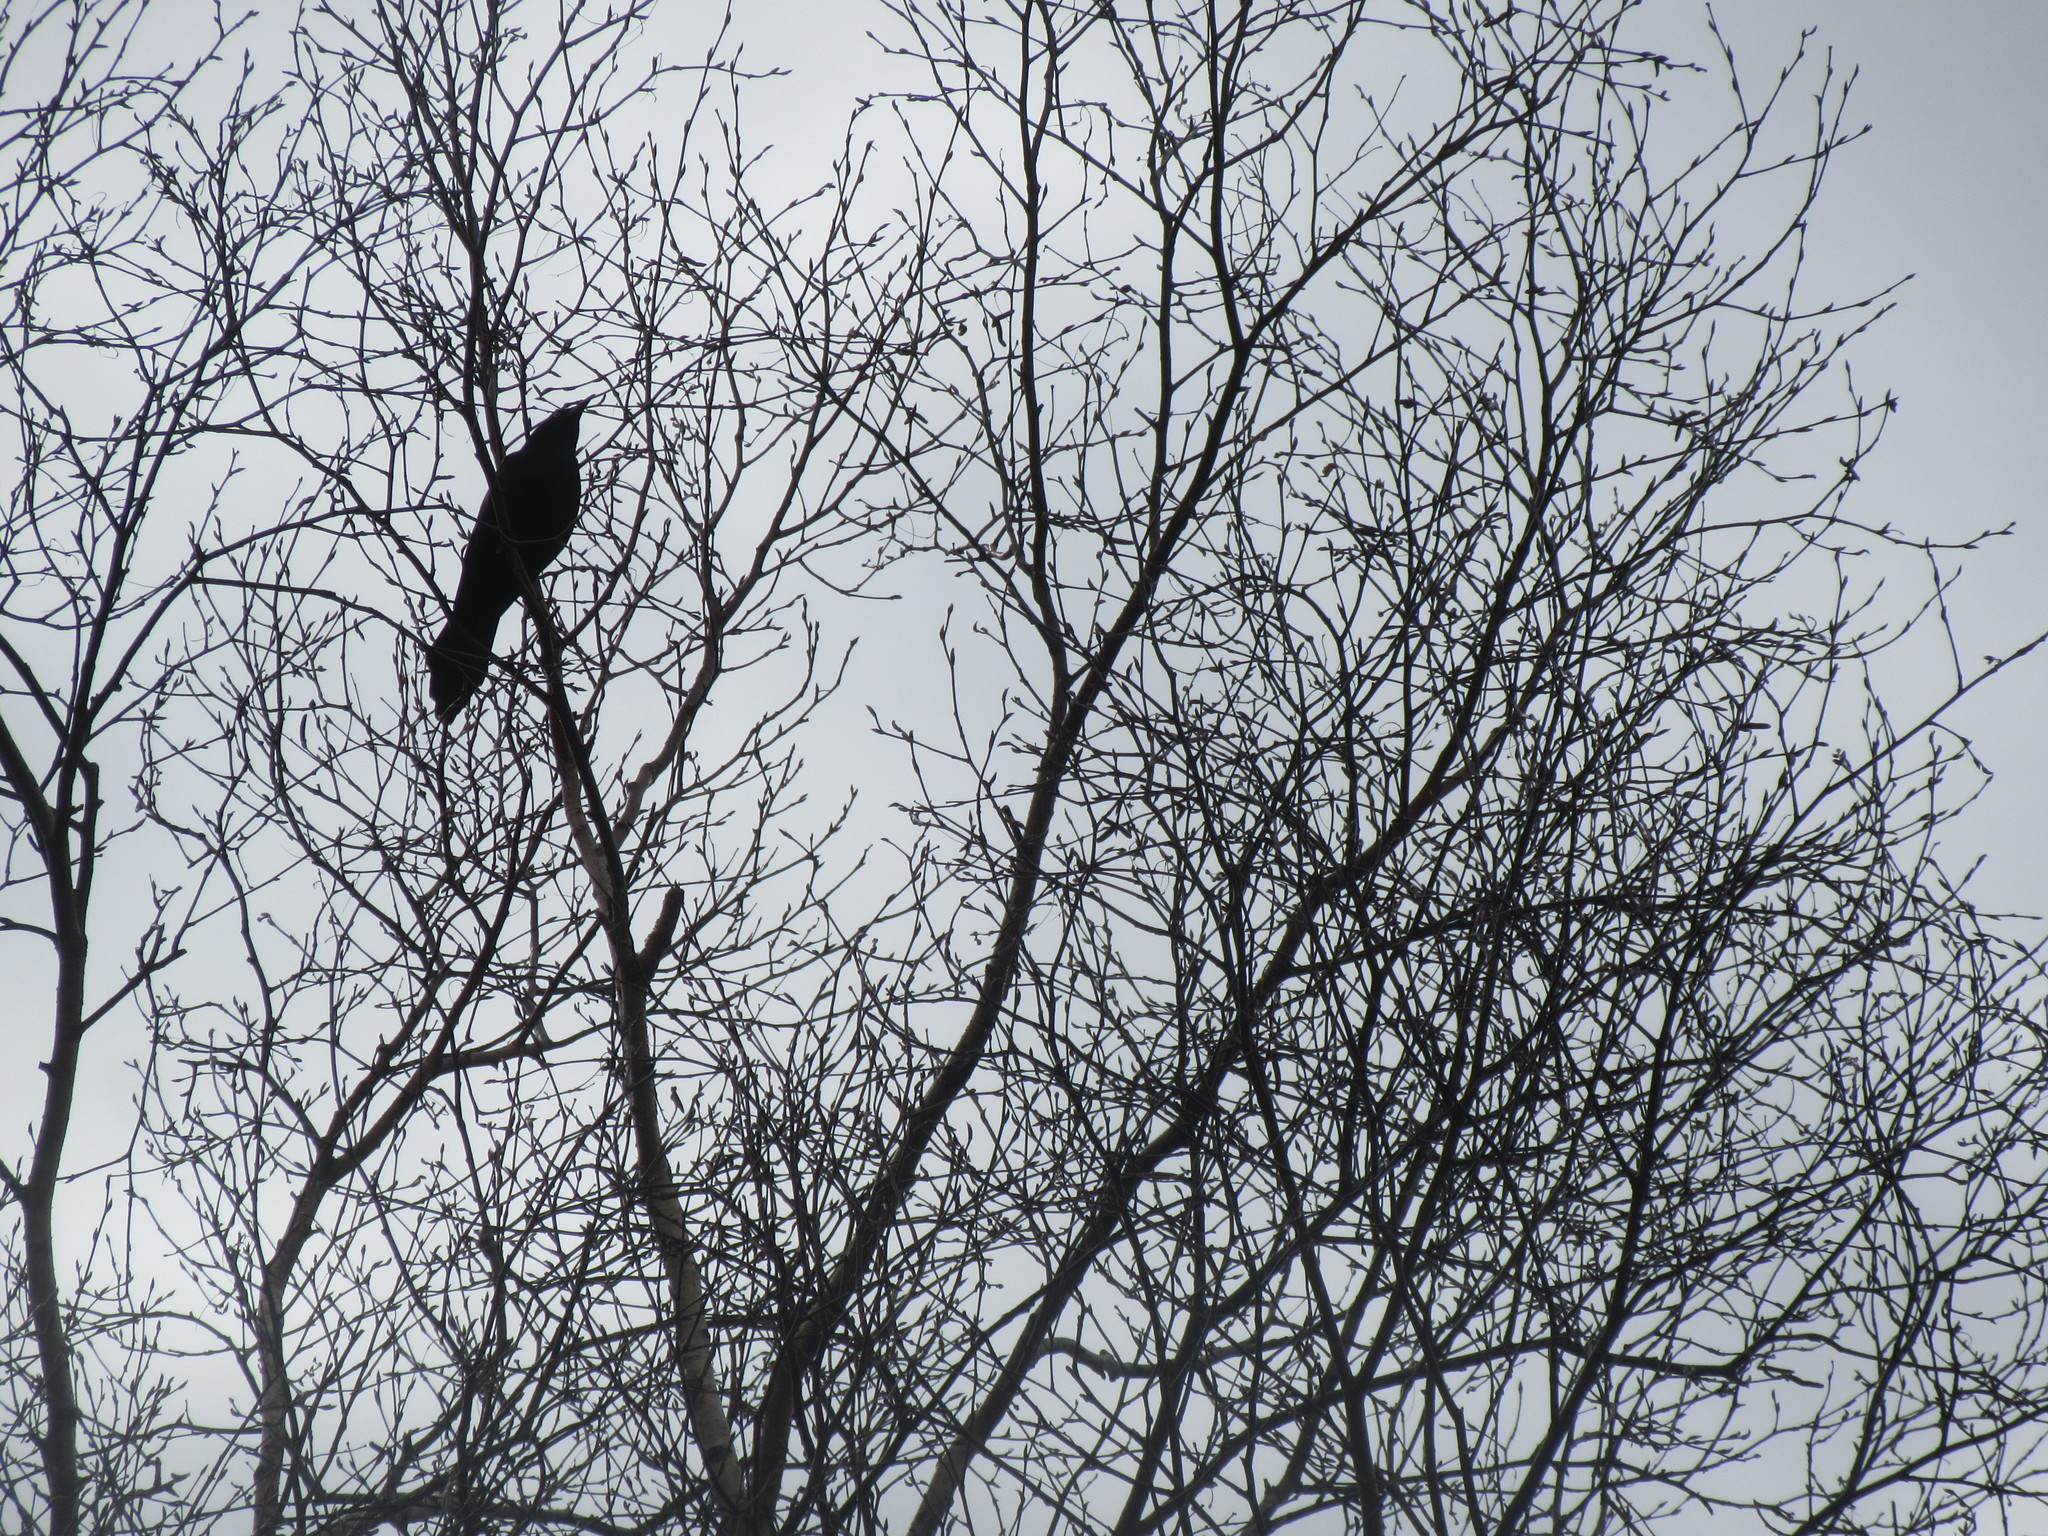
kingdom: Animalia
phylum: Chordata
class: Aves
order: Passeriformes
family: Icteridae
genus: Quiscalus
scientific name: Quiscalus quiscula
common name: Common grackle
